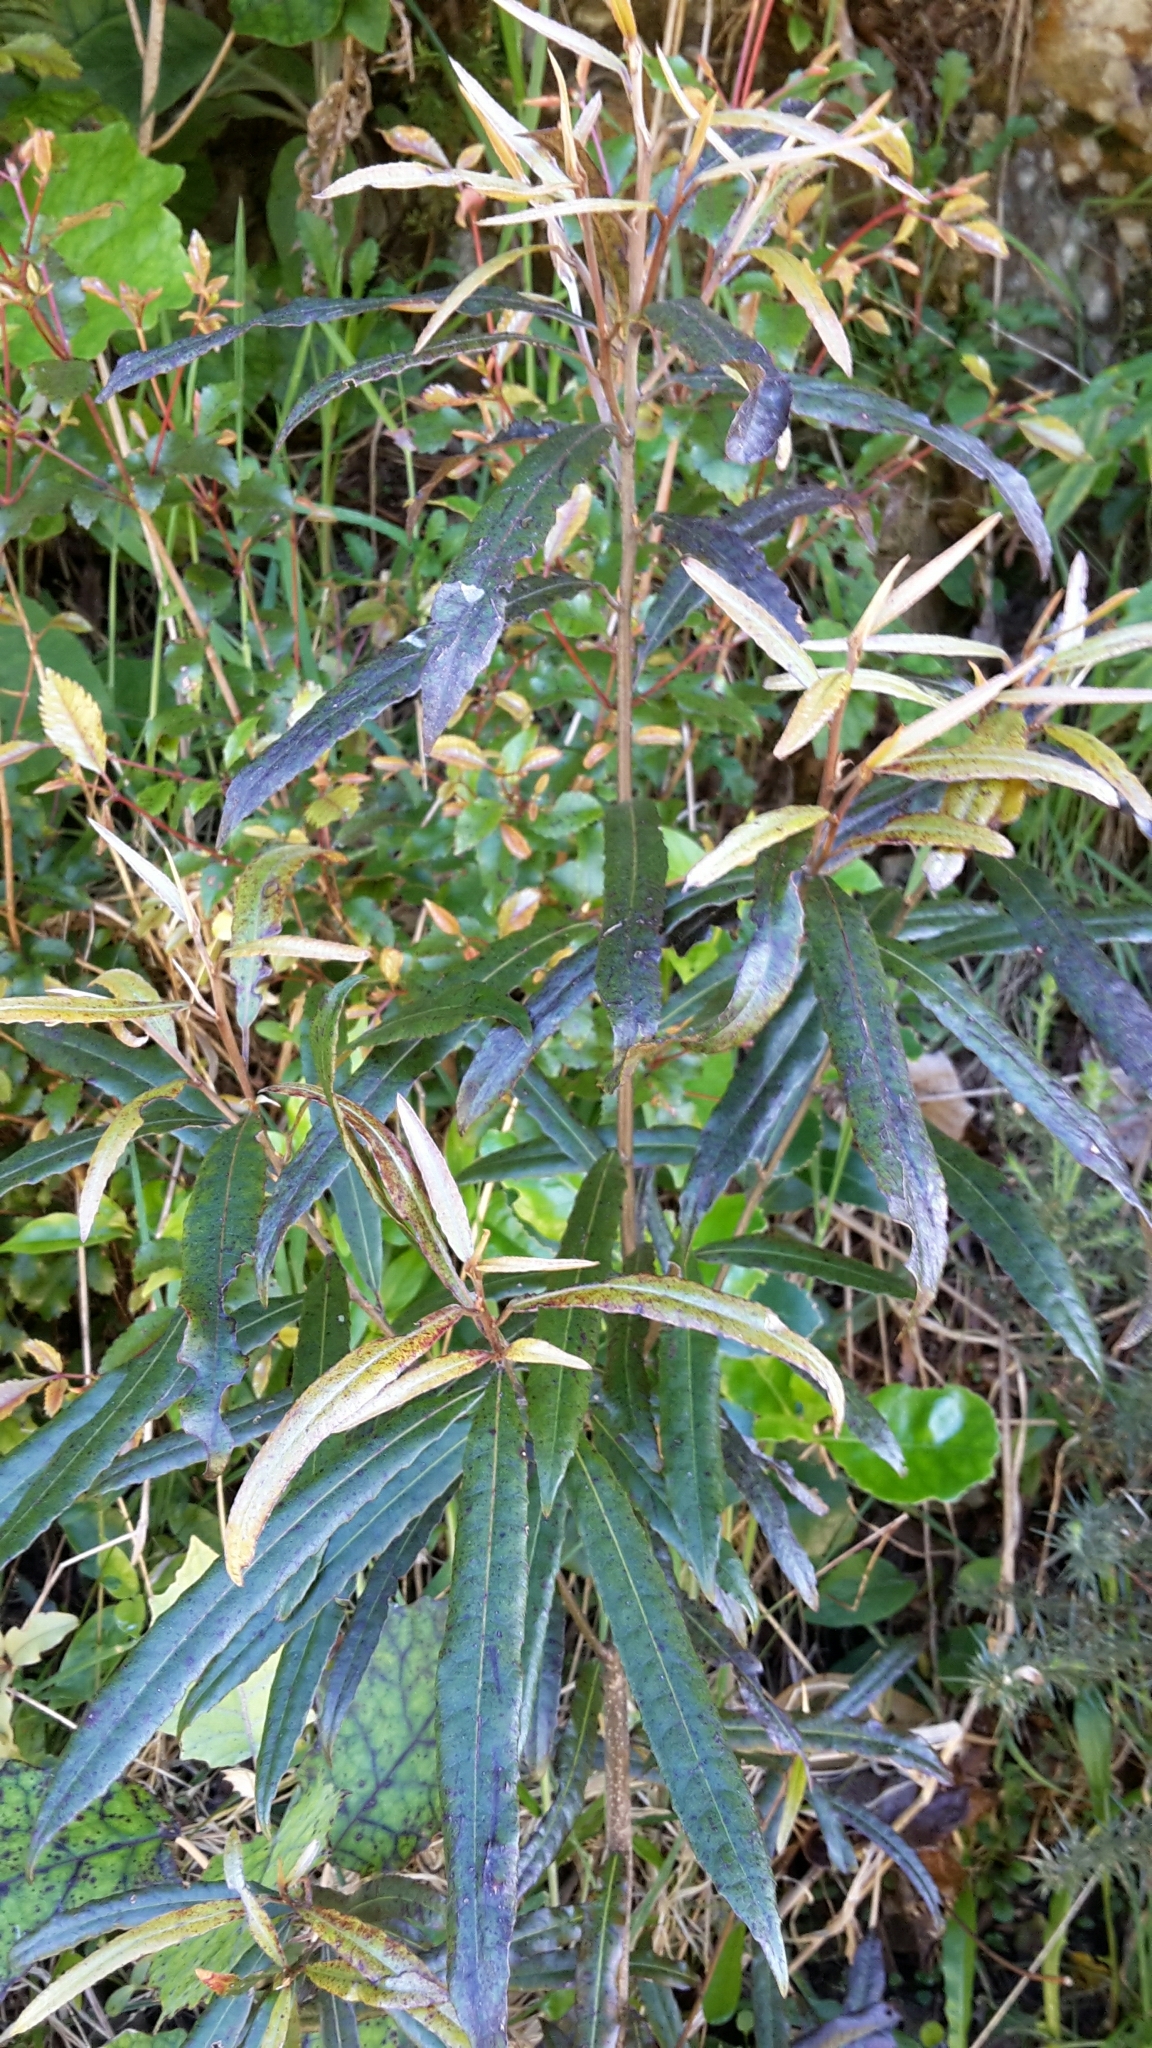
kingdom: Plantae
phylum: Tracheophyta
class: Magnoliopsida
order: Oxalidales
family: Elaeocarpaceae
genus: Elaeocarpus
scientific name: Elaeocarpus dentatus
